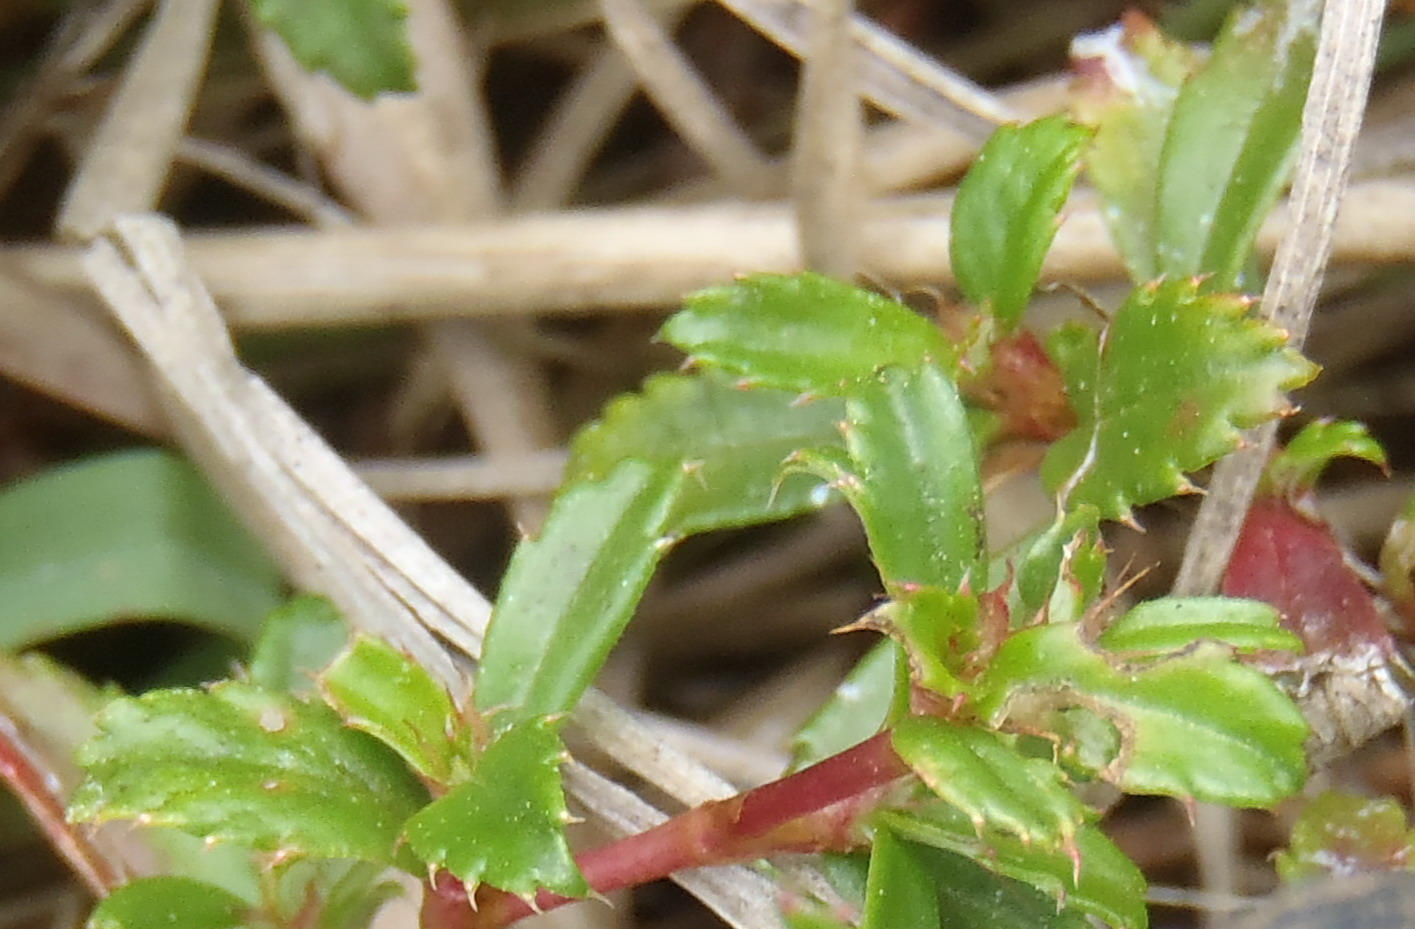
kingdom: Plantae
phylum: Tracheophyta
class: Magnoliopsida
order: Rosales
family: Rosaceae
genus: Cliffortia
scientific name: Cliffortia ferruginea
